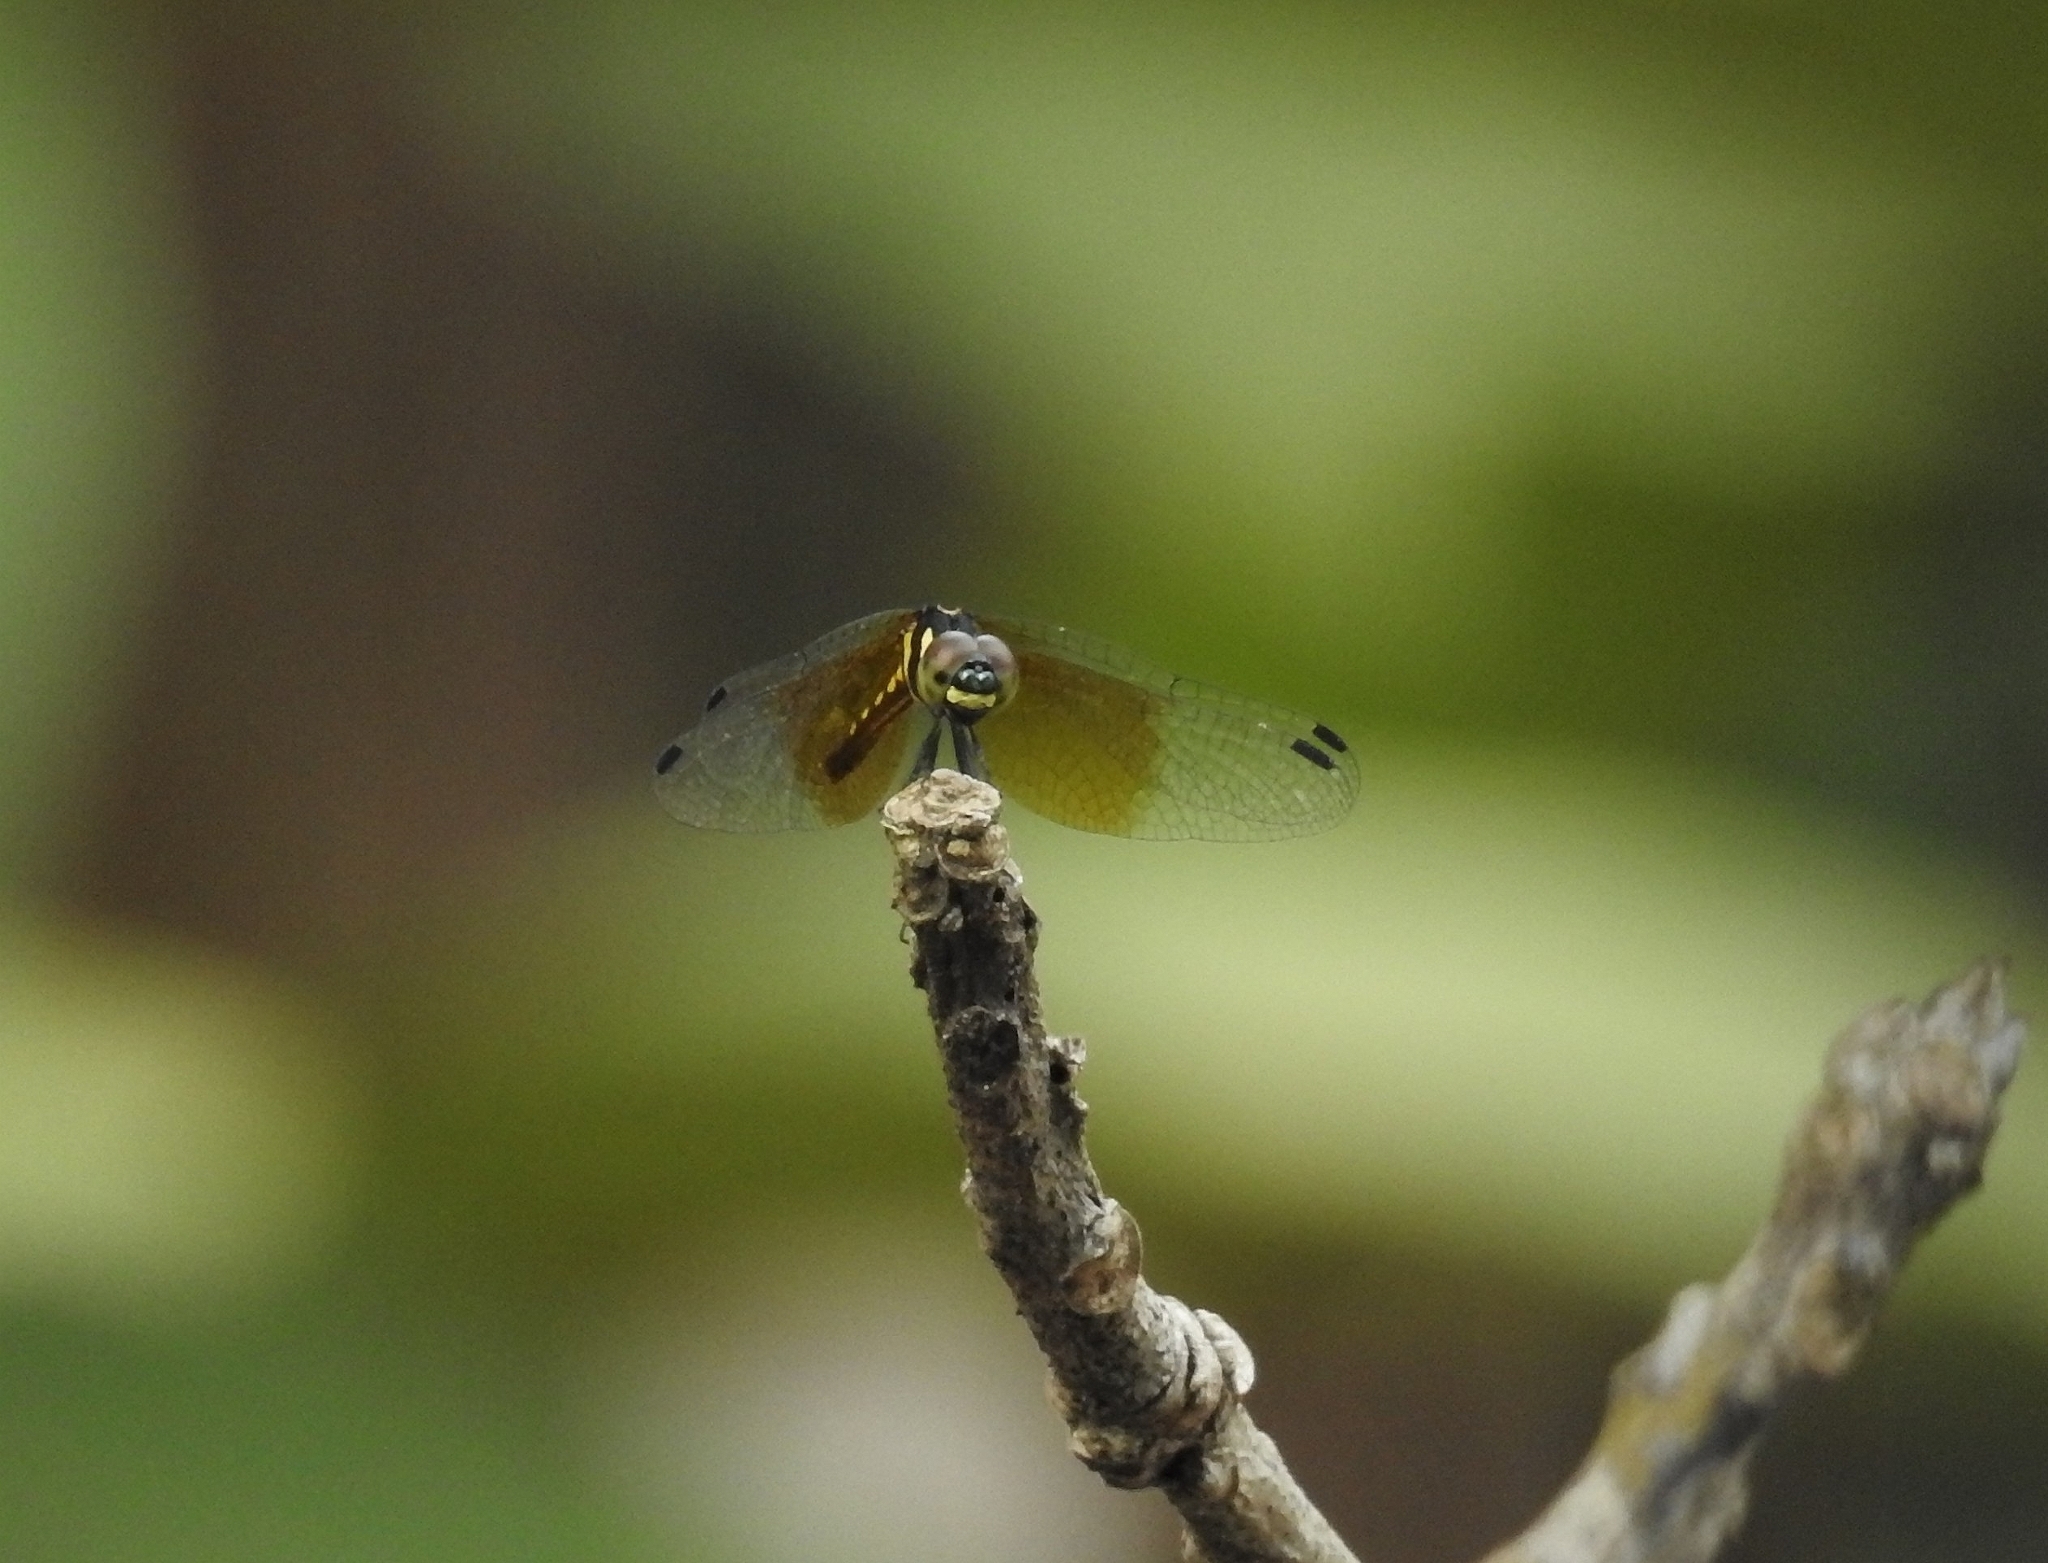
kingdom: Animalia
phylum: Arthropoda
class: Insecta
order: Odonata
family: Libellulidae
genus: Tetrathemis
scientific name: Tetrathemis platyptera
